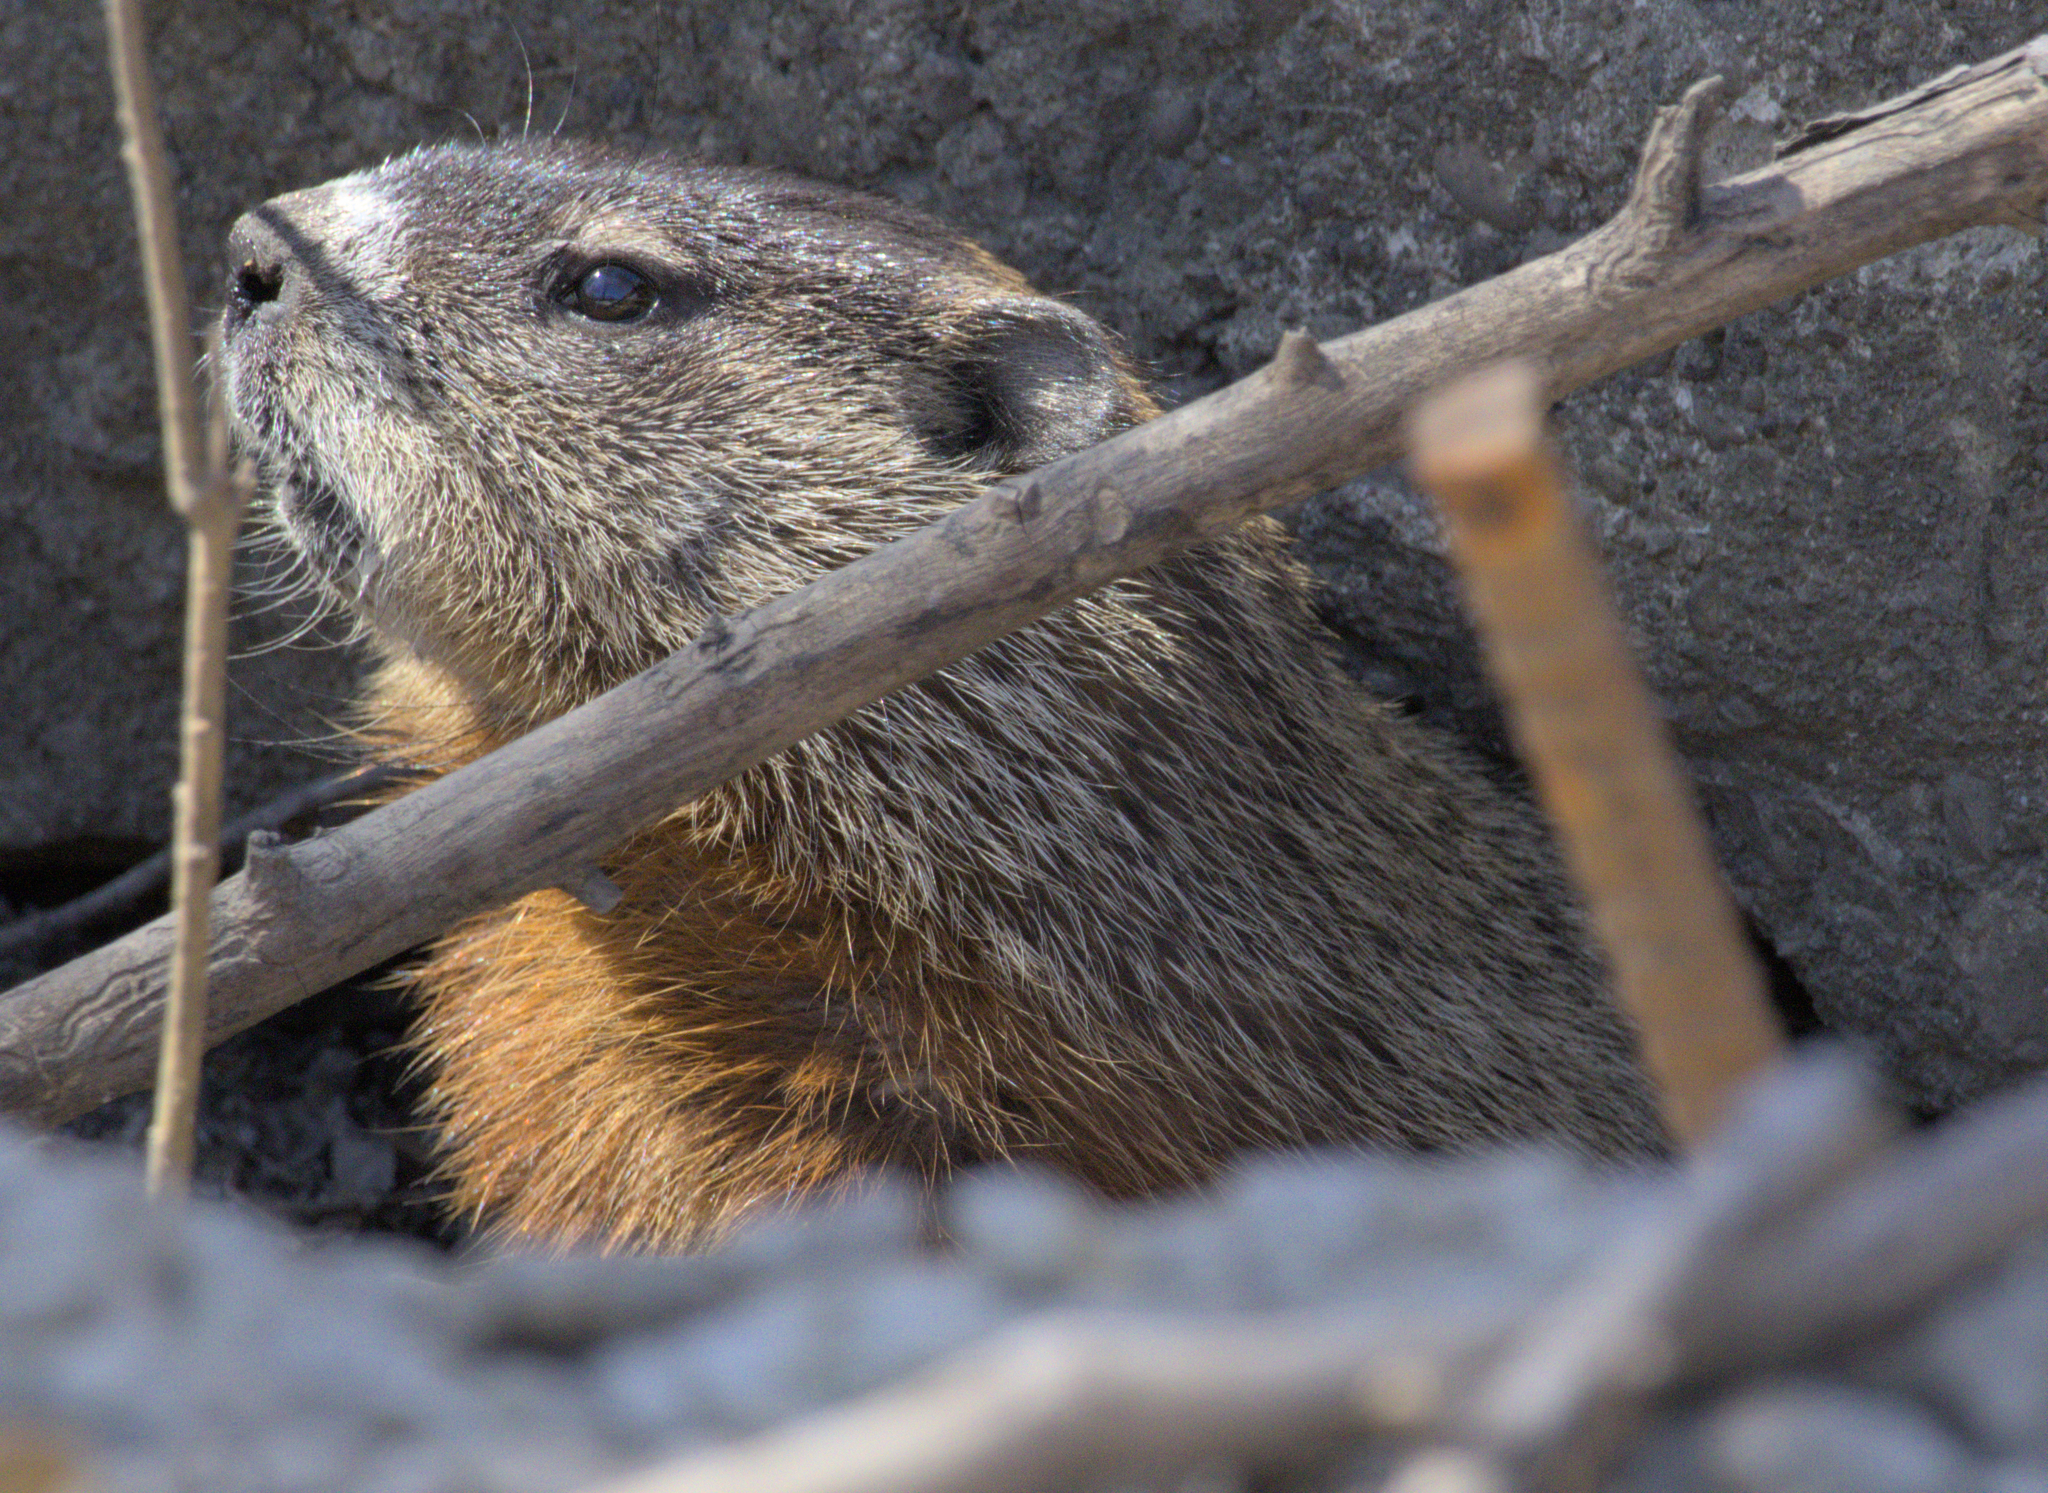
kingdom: Animalia
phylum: Chordata
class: Mammalia
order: Rodentia
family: Sciuridae
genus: Marmota
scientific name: Marmota monax
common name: Groundhog
